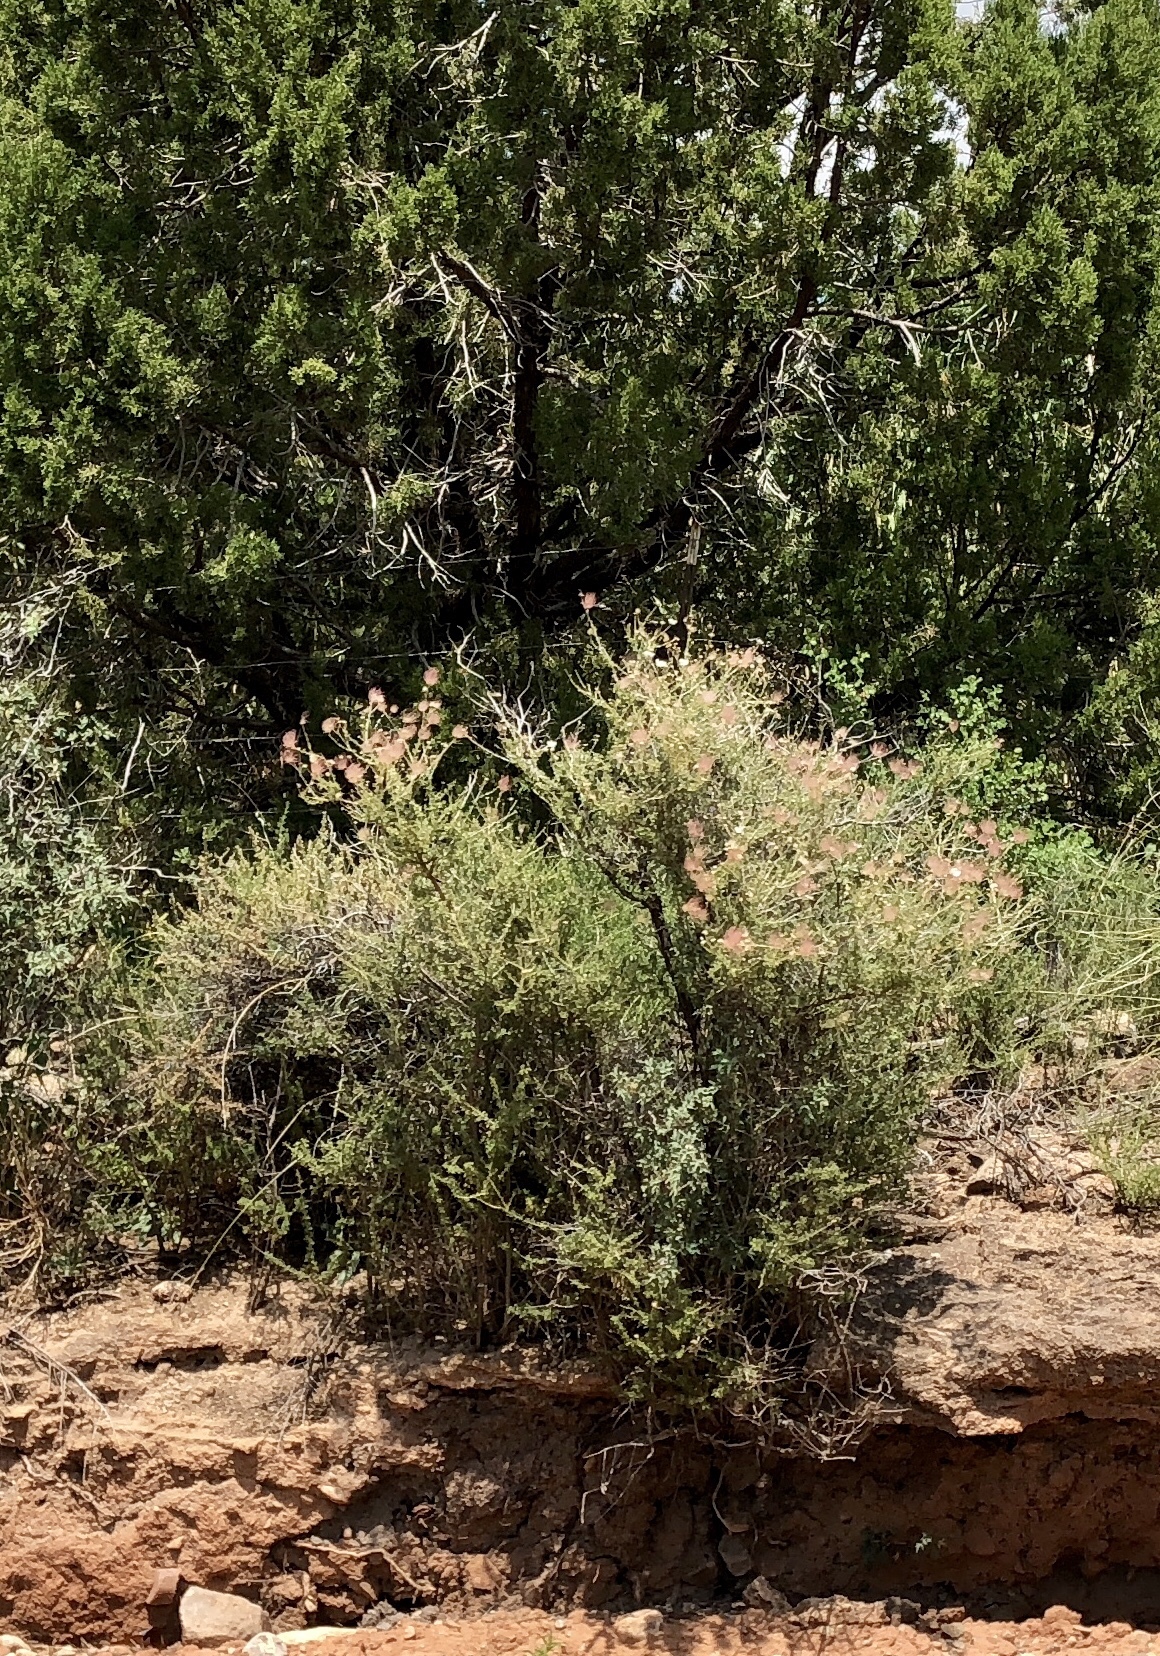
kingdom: Plantae
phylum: Tracheophyta
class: Magnoliopsida
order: Rosales
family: Rosaceae
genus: Fallugia
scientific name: Fallugia paradoxa
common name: Apache-plume
